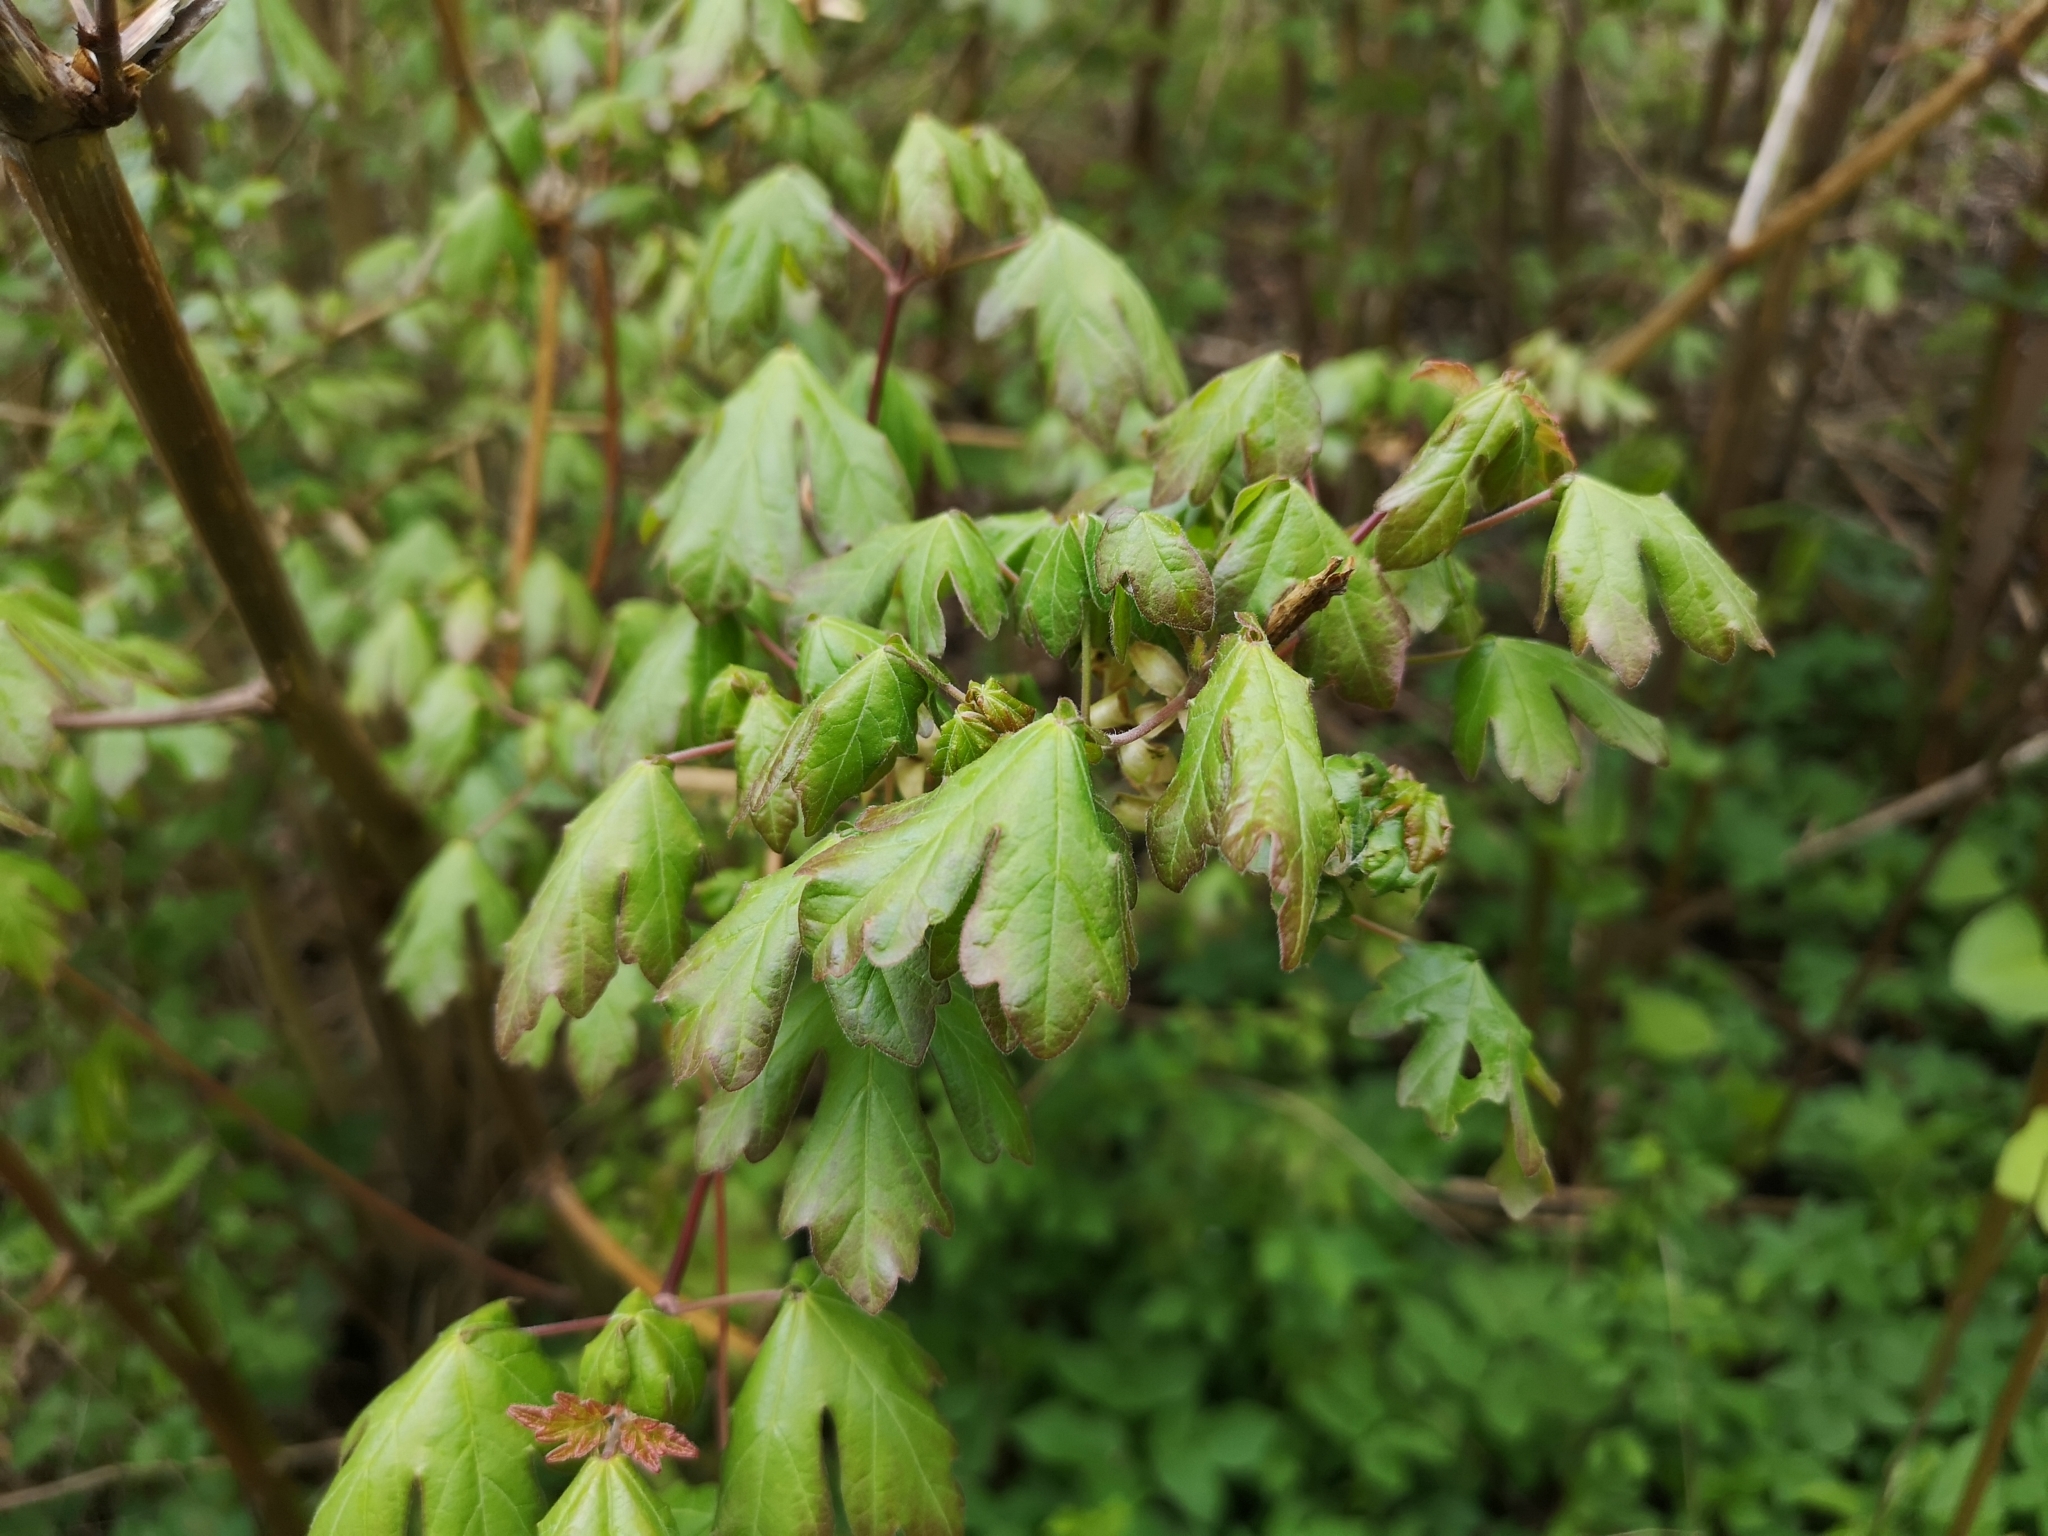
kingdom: Plantae
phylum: Tracheophyta
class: Magnoliopsida
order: Sapindales
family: Sapindaceae
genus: Acer
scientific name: Acer campestre
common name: Field maple
